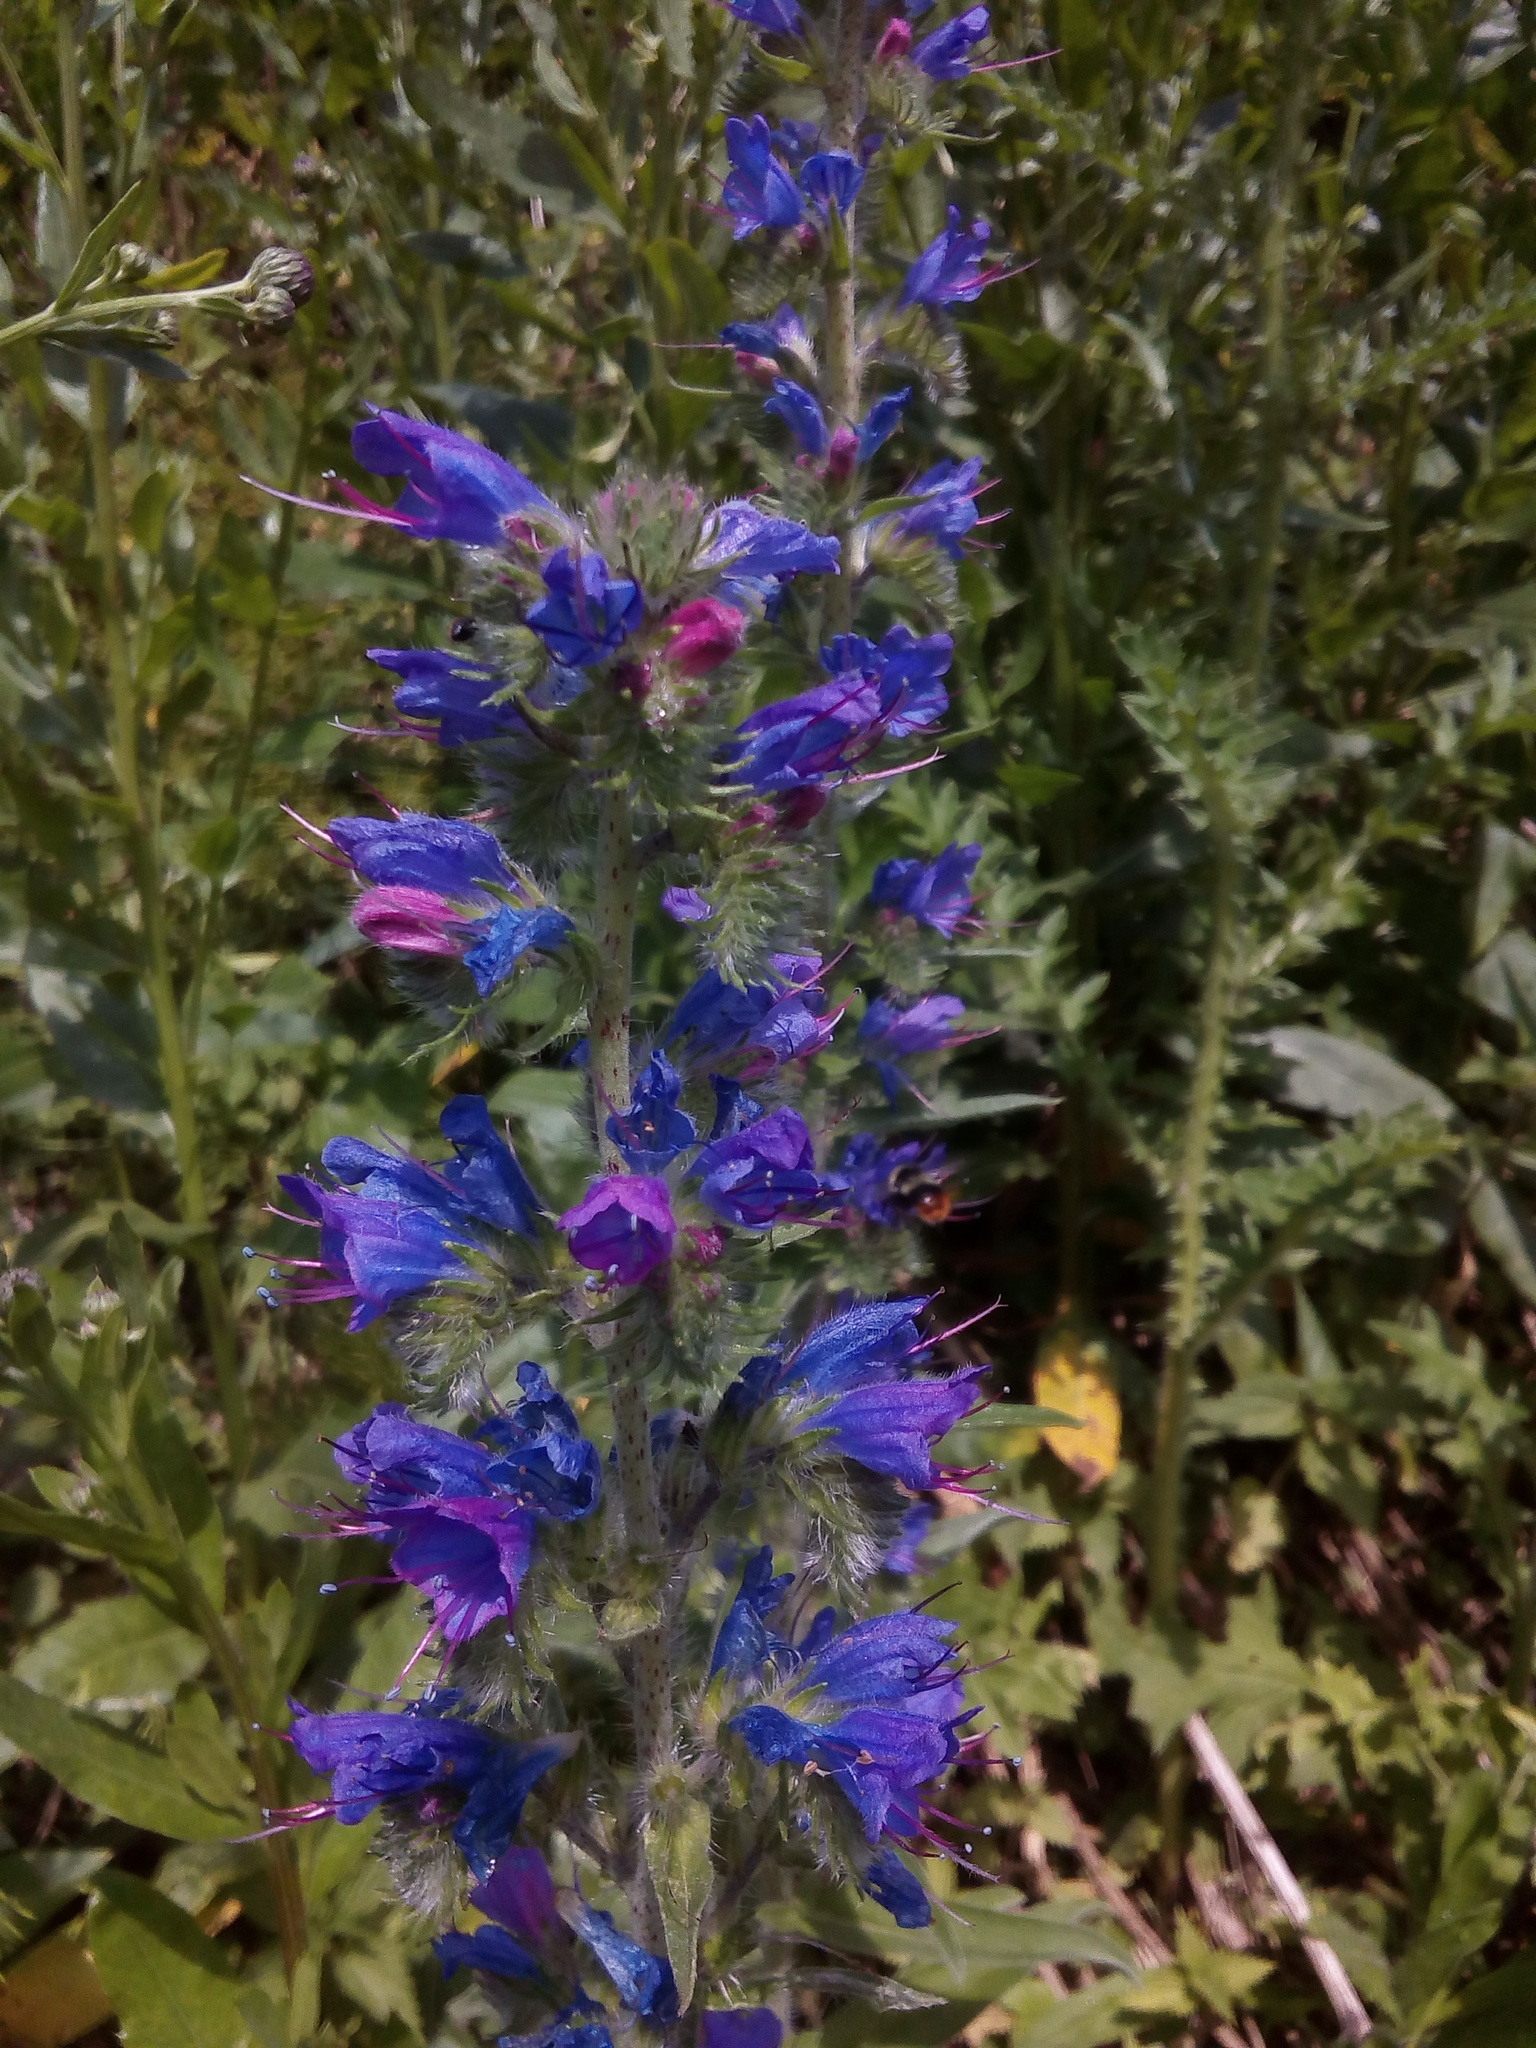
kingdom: Plantae
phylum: Tracheophyta
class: Magnoliopsida
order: Boraginales
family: Boraginaceae
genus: Echium
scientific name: Echium vulgare
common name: Common viper's bugloss
